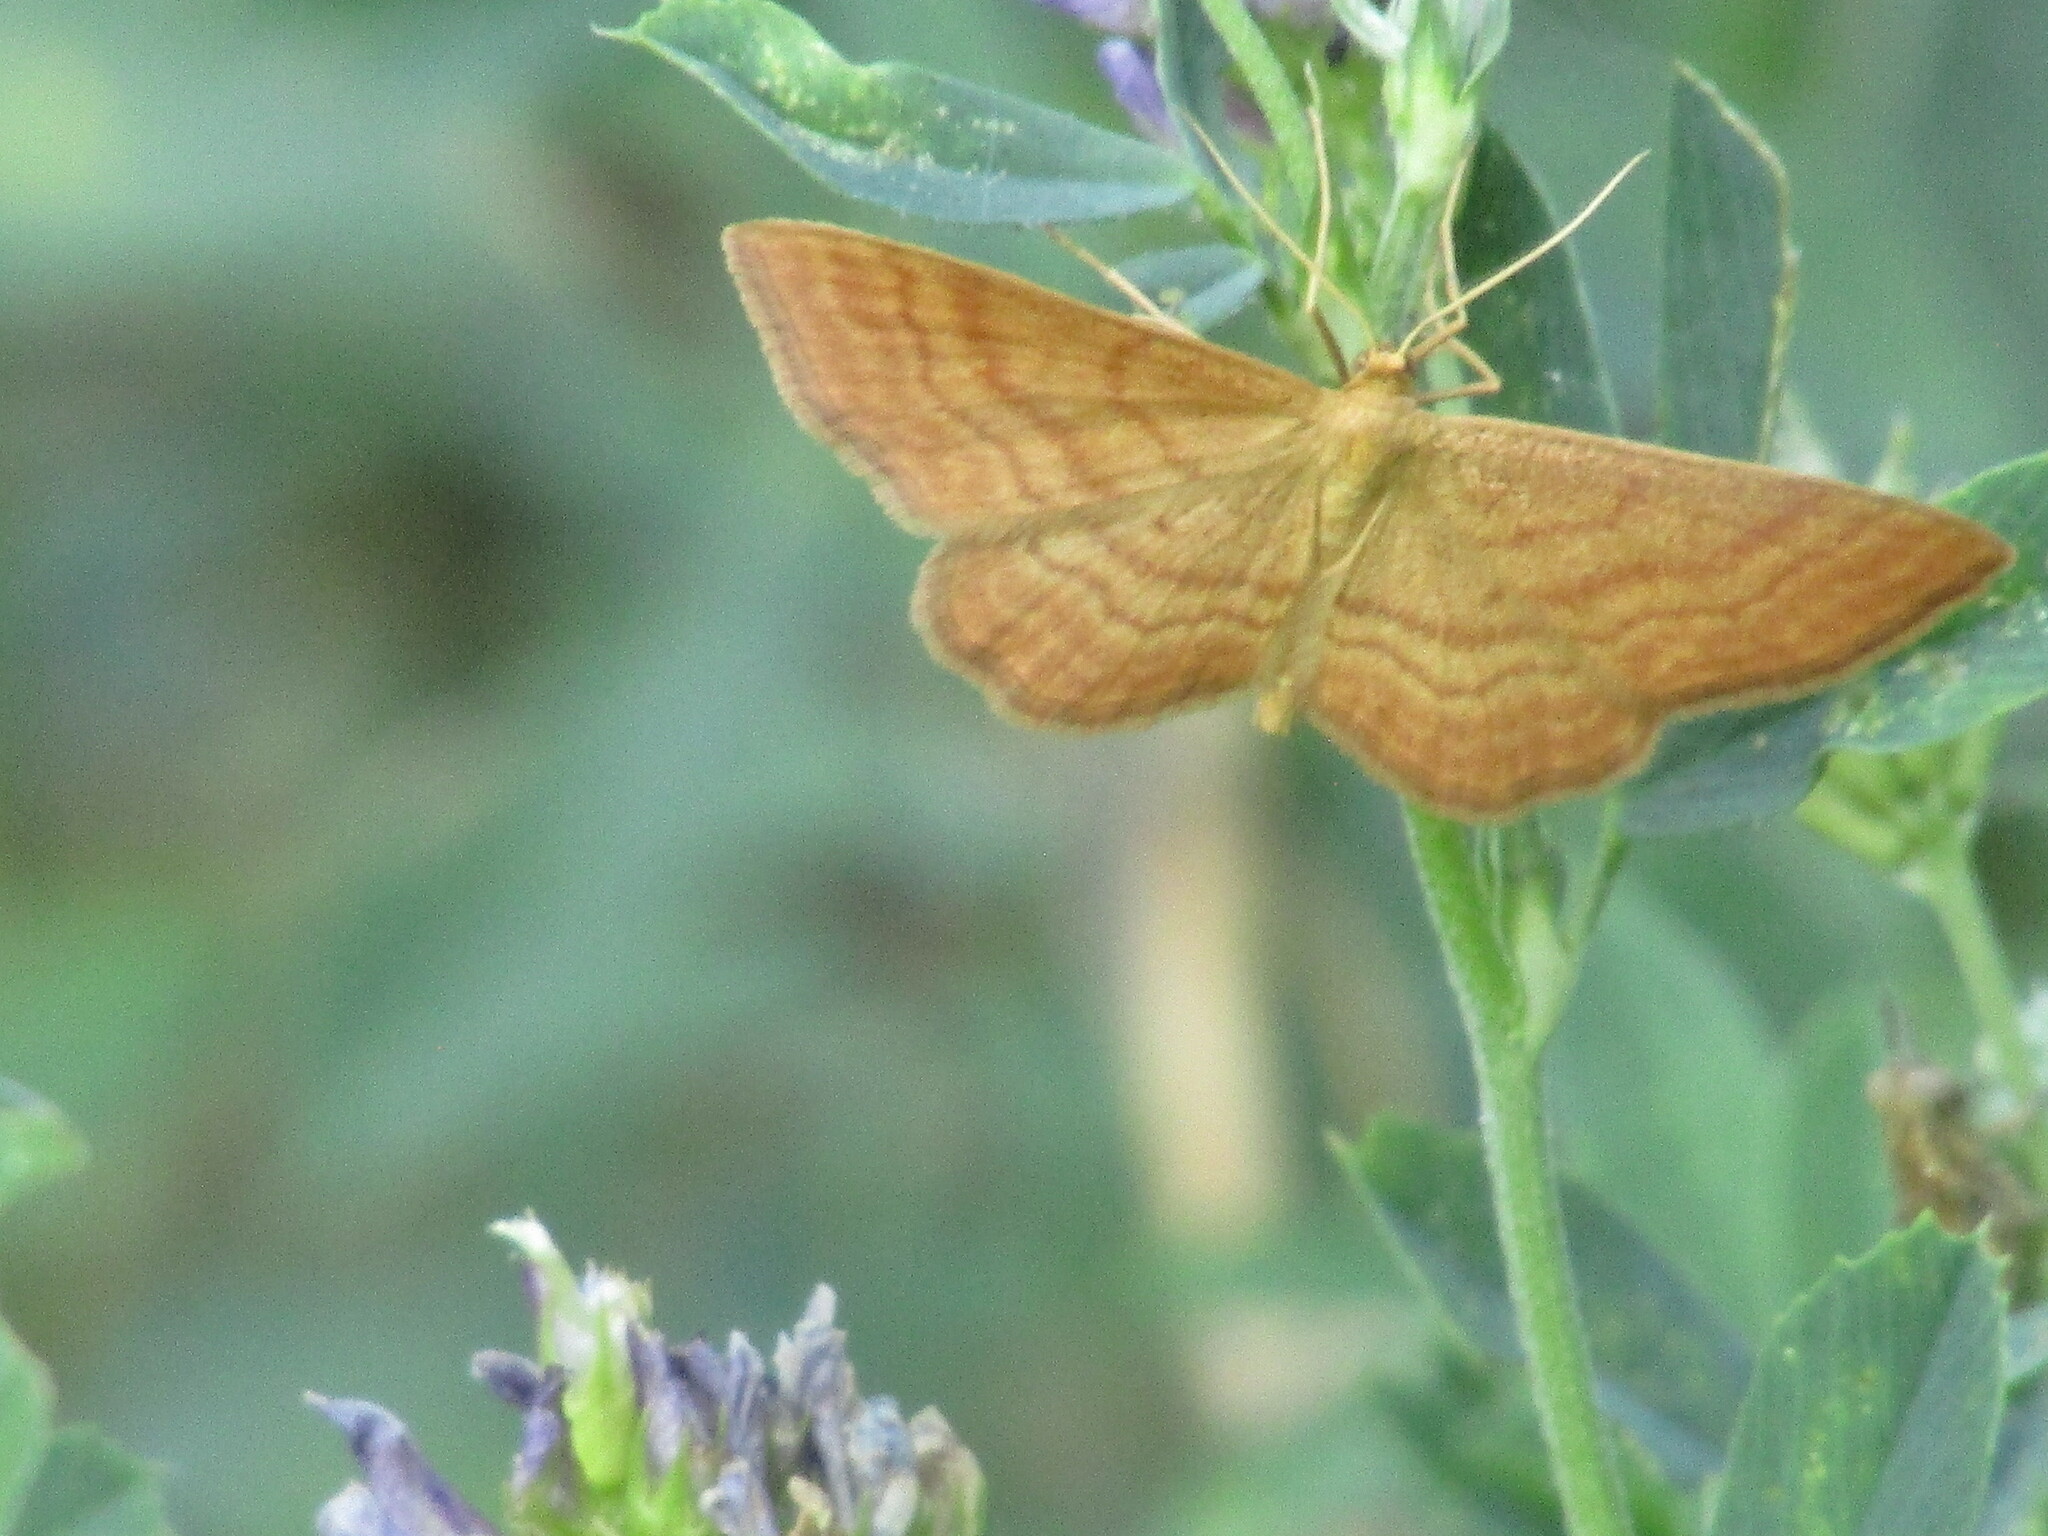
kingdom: Animalia
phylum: Arthropoda
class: Insecta
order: Lepidoptera
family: Geometridae
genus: Idaea
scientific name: Idaea ochrata
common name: Bright wave
